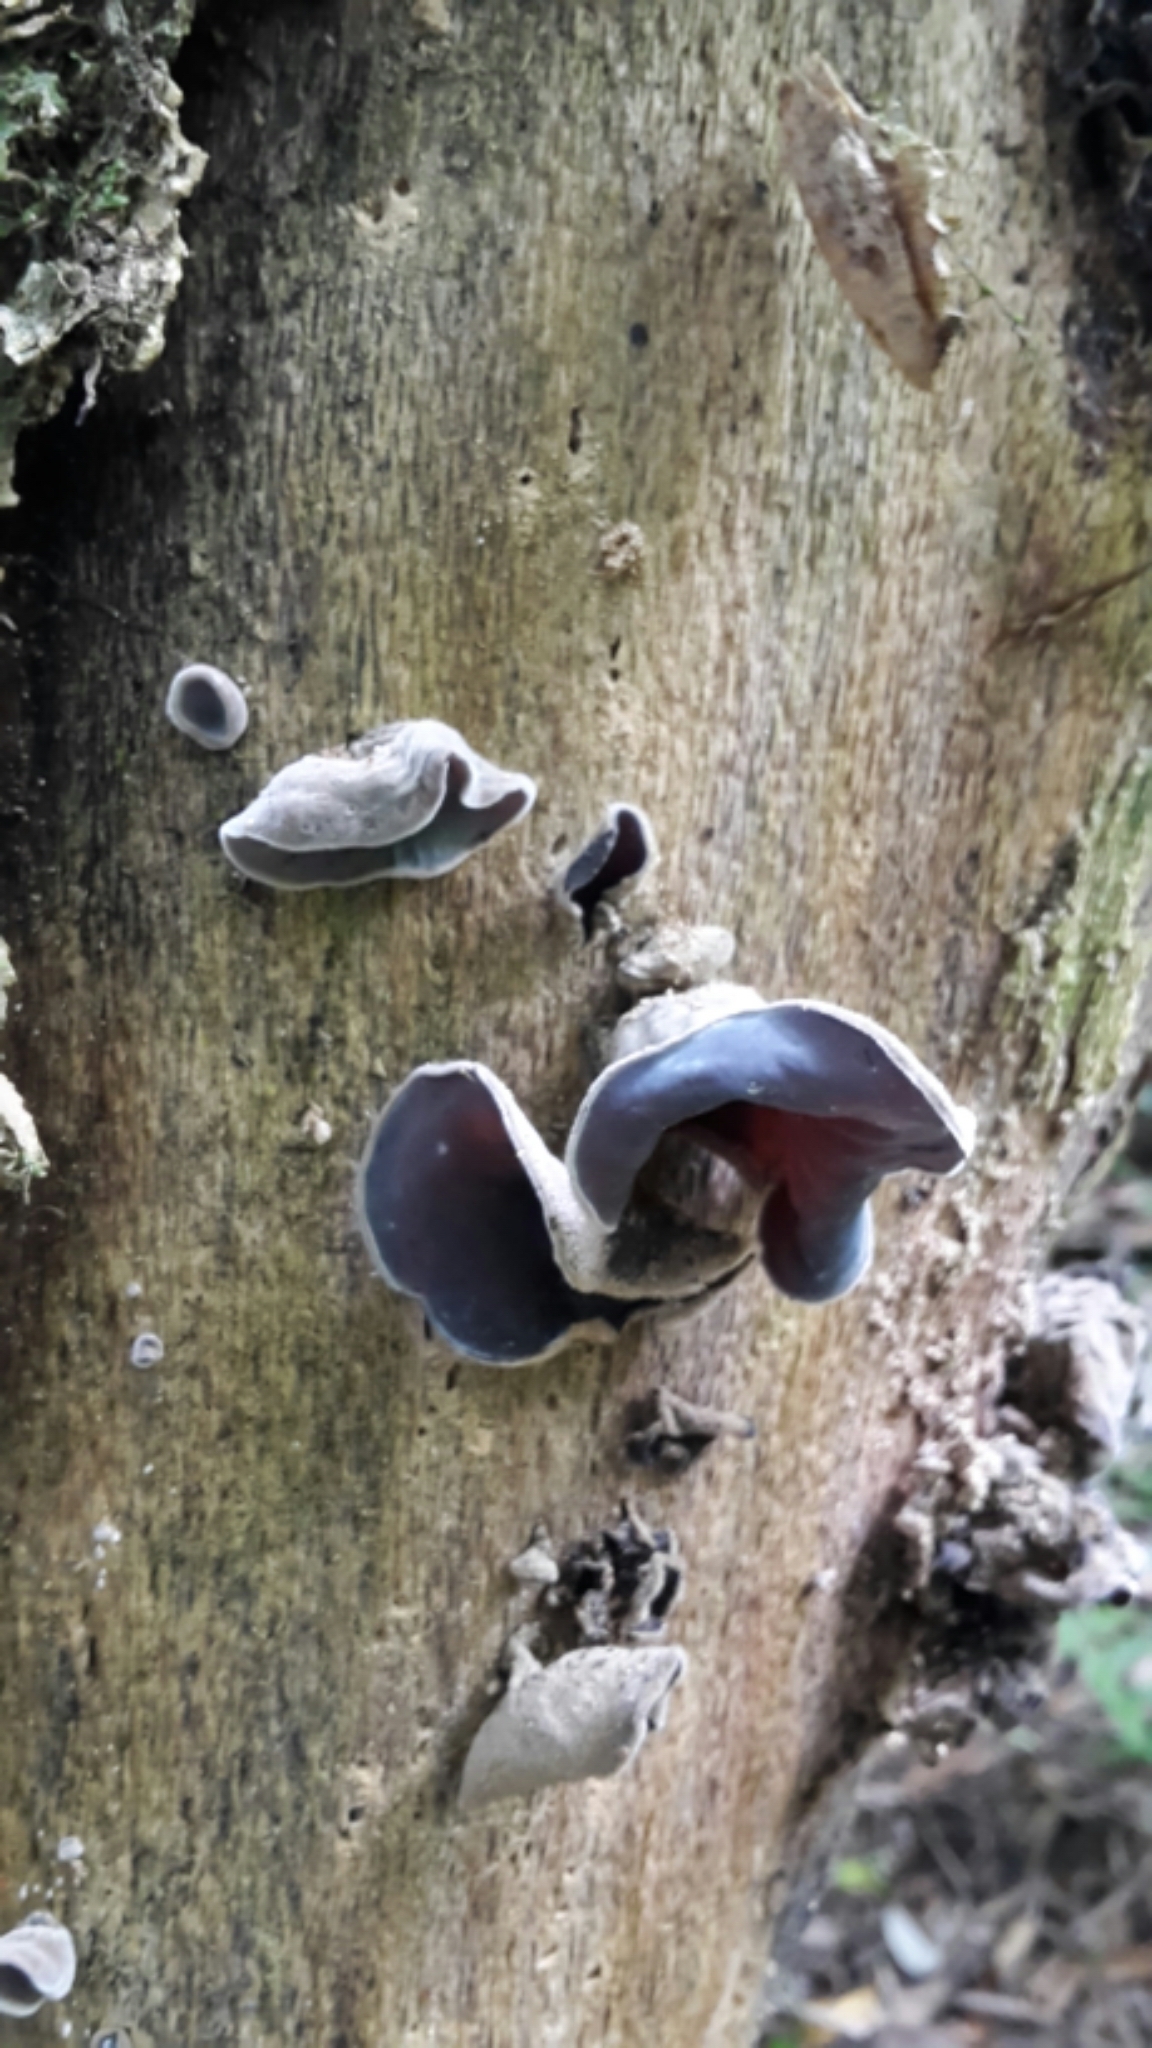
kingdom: Fungi
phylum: Basidiomycota
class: Agaricomycetes
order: Auriculariales
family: Auriculariaceae
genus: Auricularia
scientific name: Auricularia cornea
